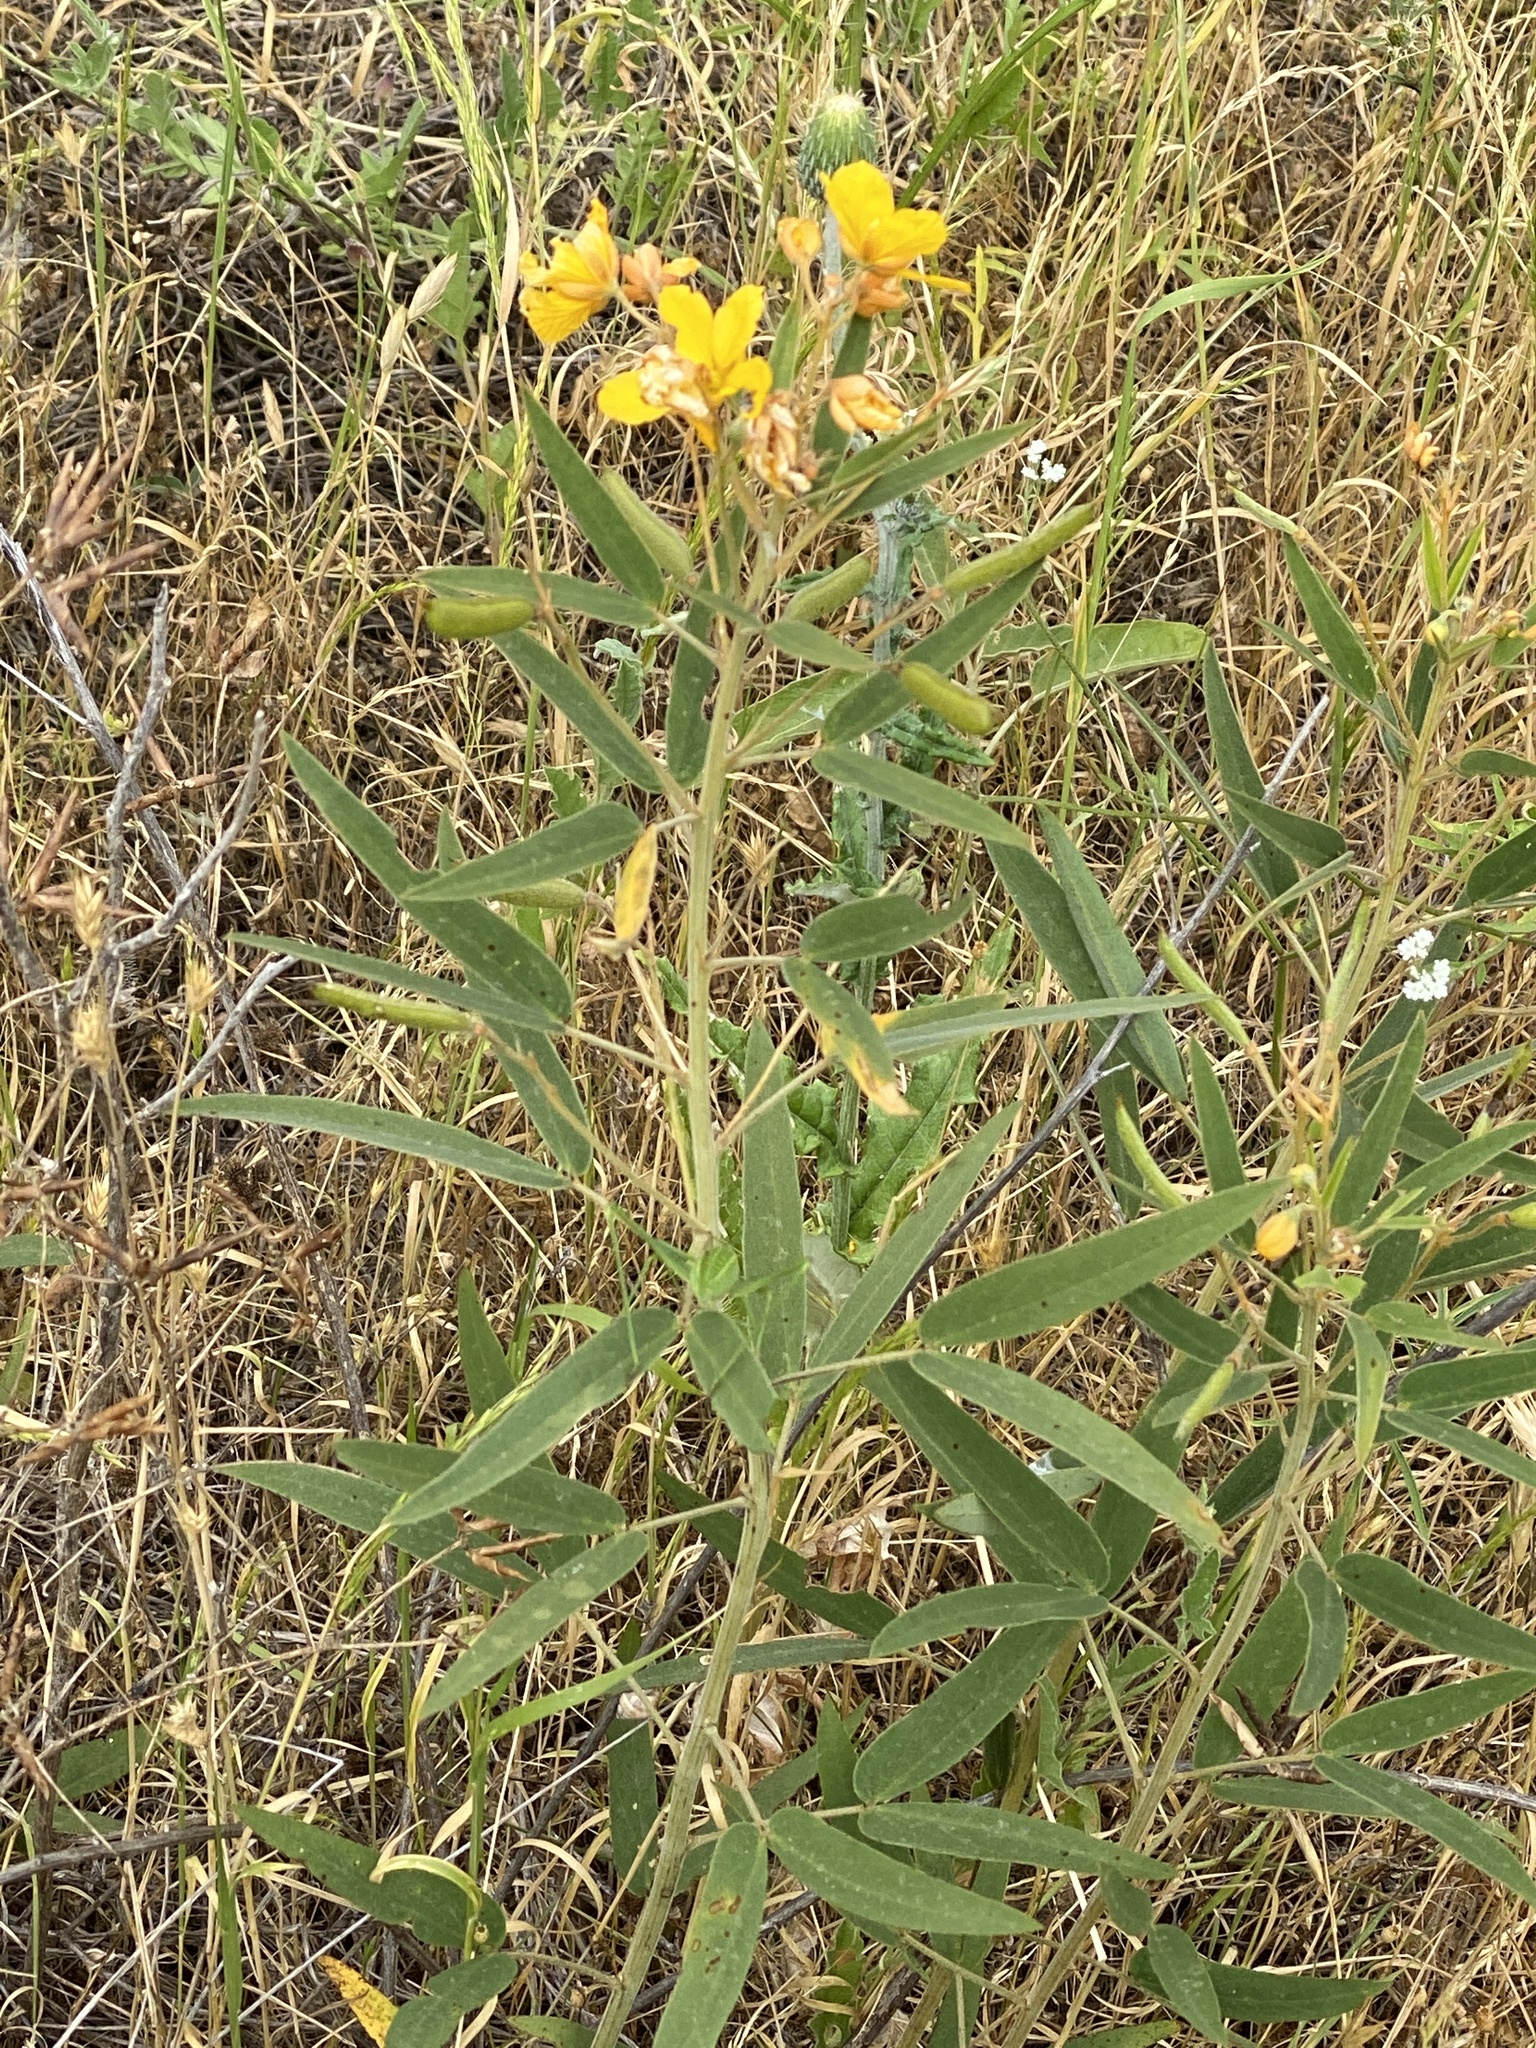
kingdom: Plantae
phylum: Tracheophyta
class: Magnoliopsida
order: Fabales
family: Fabaceae
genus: Senna
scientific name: Senna roemeriana
